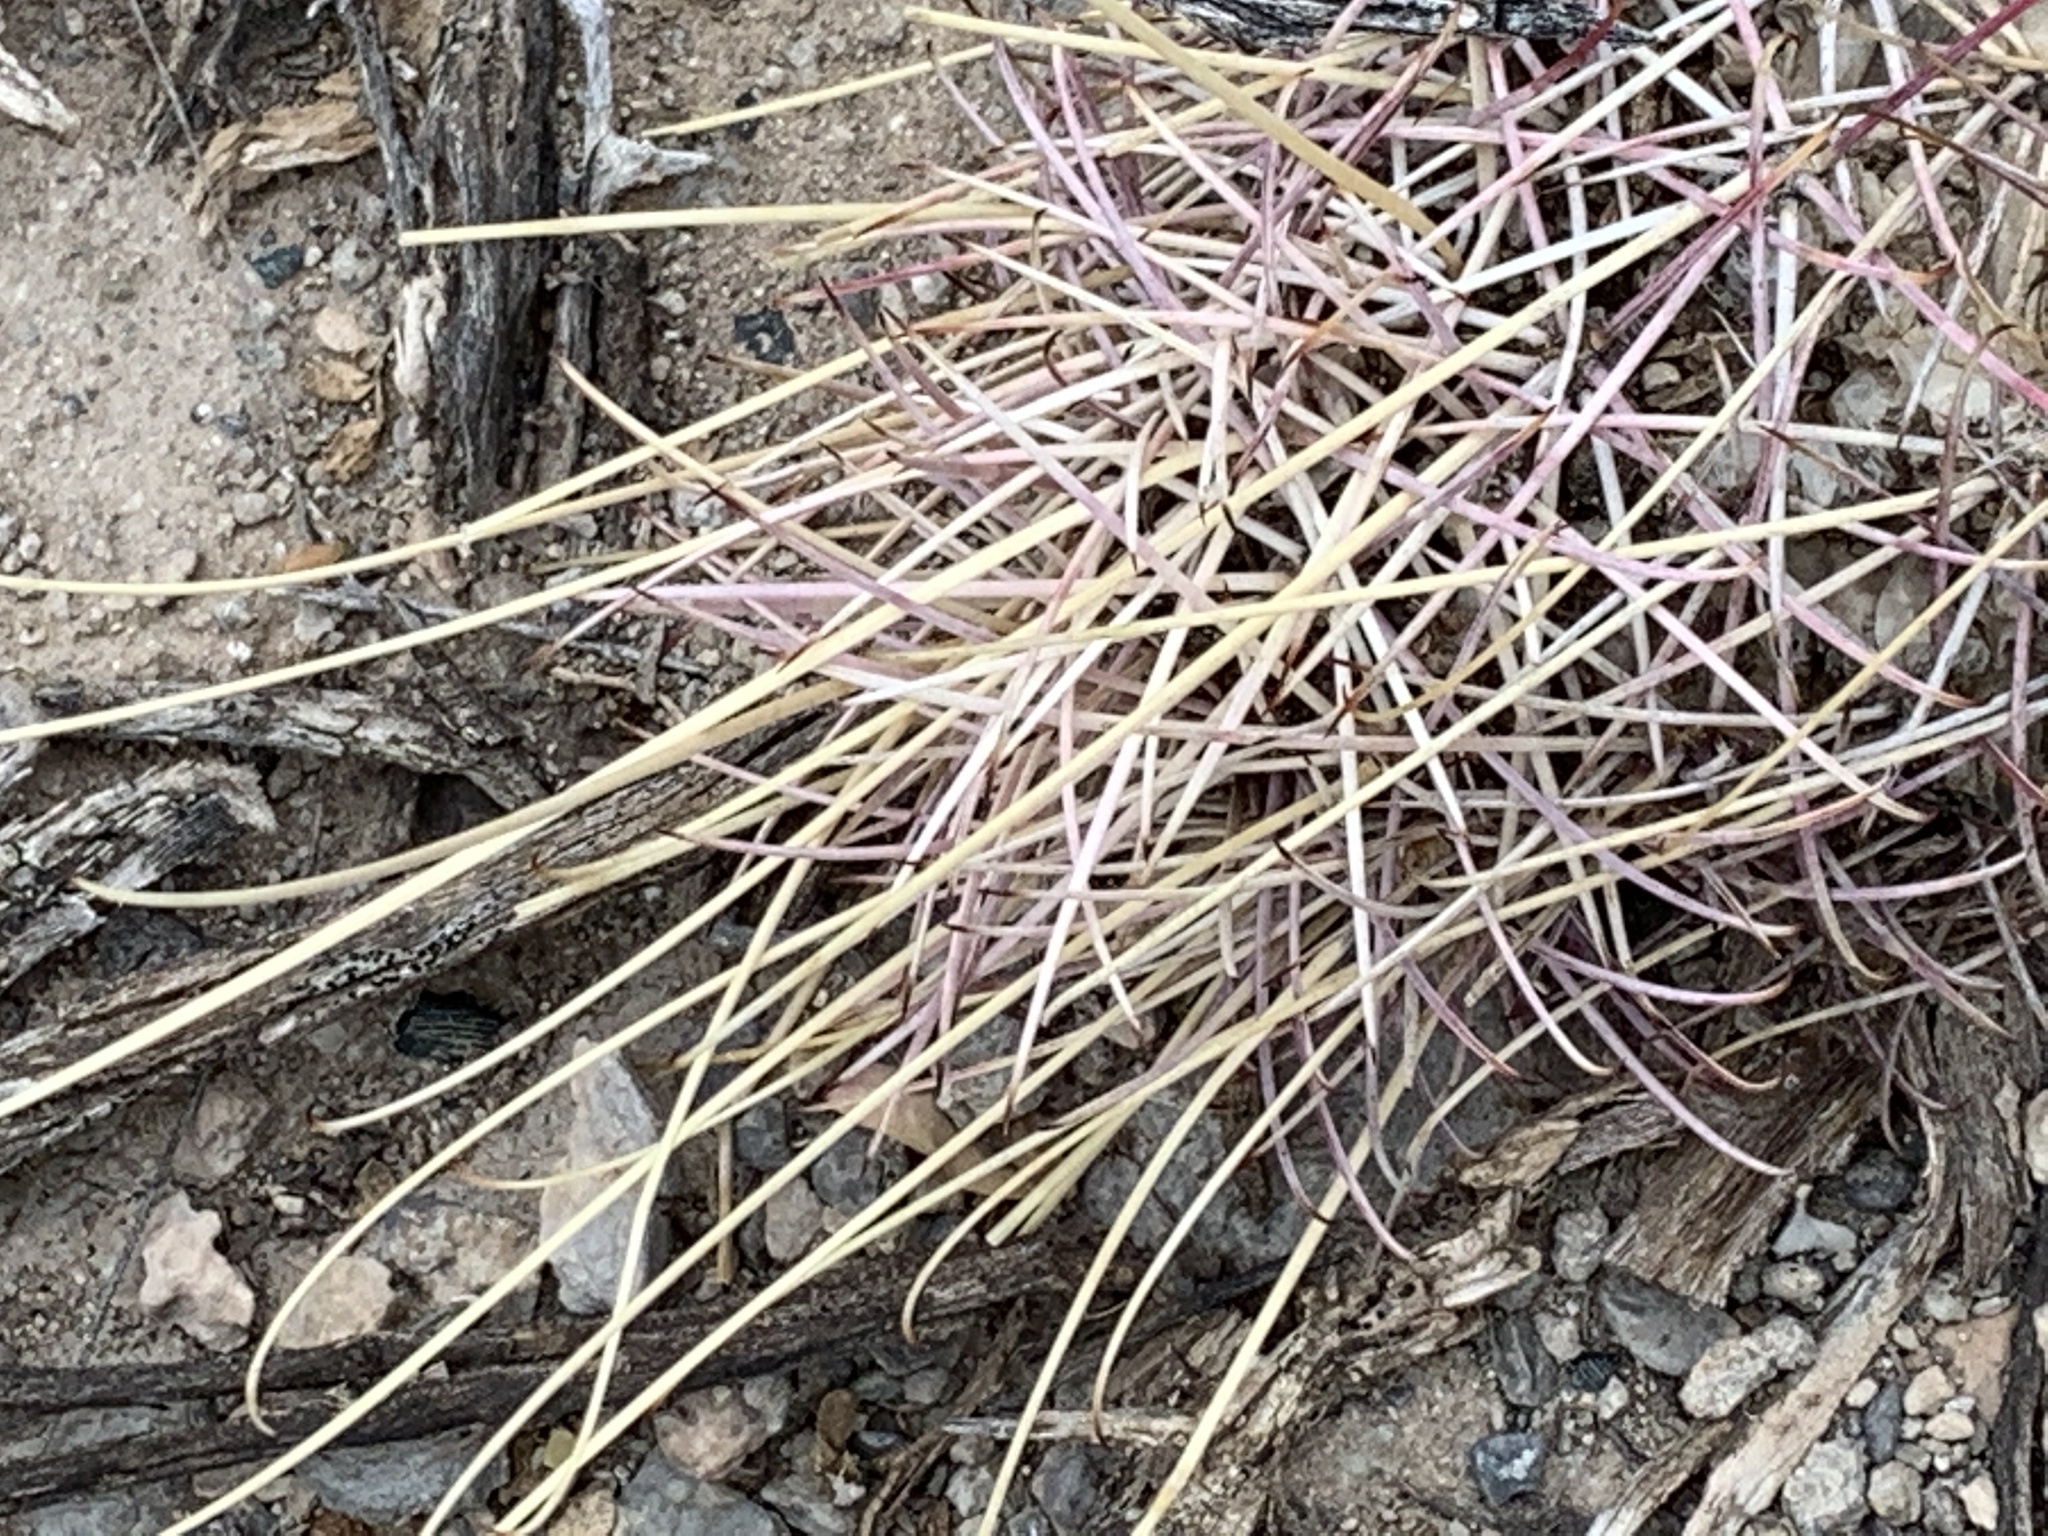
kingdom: Plantae
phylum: Tracheophyta
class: Magnoliopsida
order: Caryophyllales
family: Cactaceae
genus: Ferocactus
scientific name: Ferocactus uncinatus
